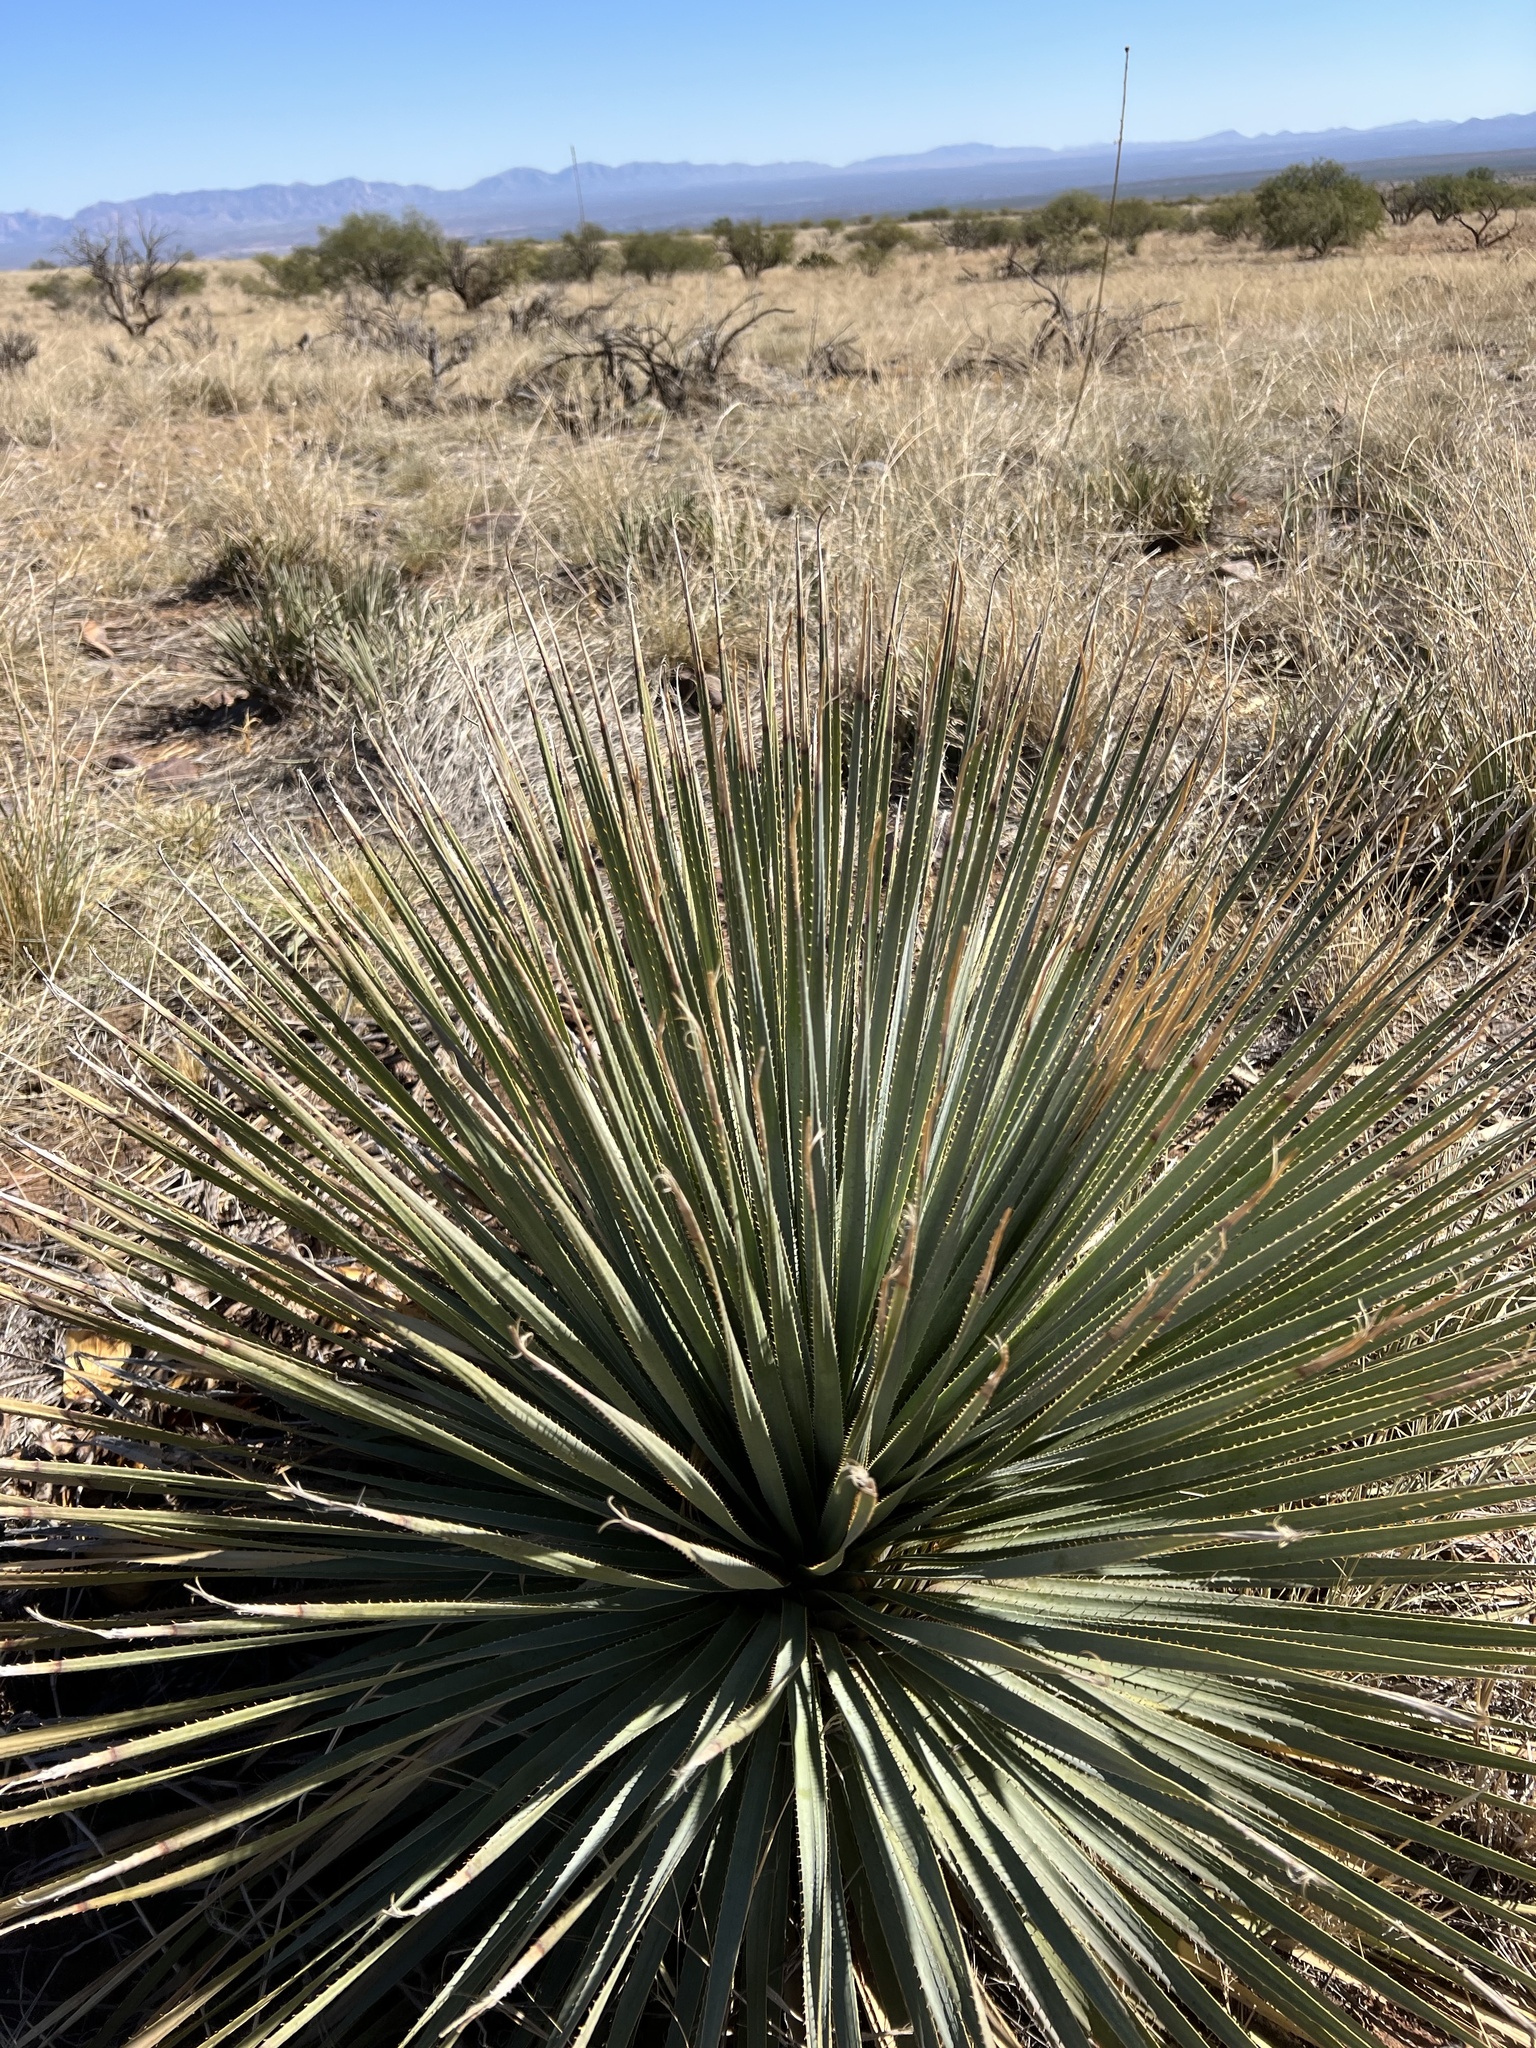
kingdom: Plantae
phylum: Tracheophyta
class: Liliopsida
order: Asparagales
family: Asparagaceae
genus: Dasylirion
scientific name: Dasylirion wheeleri
